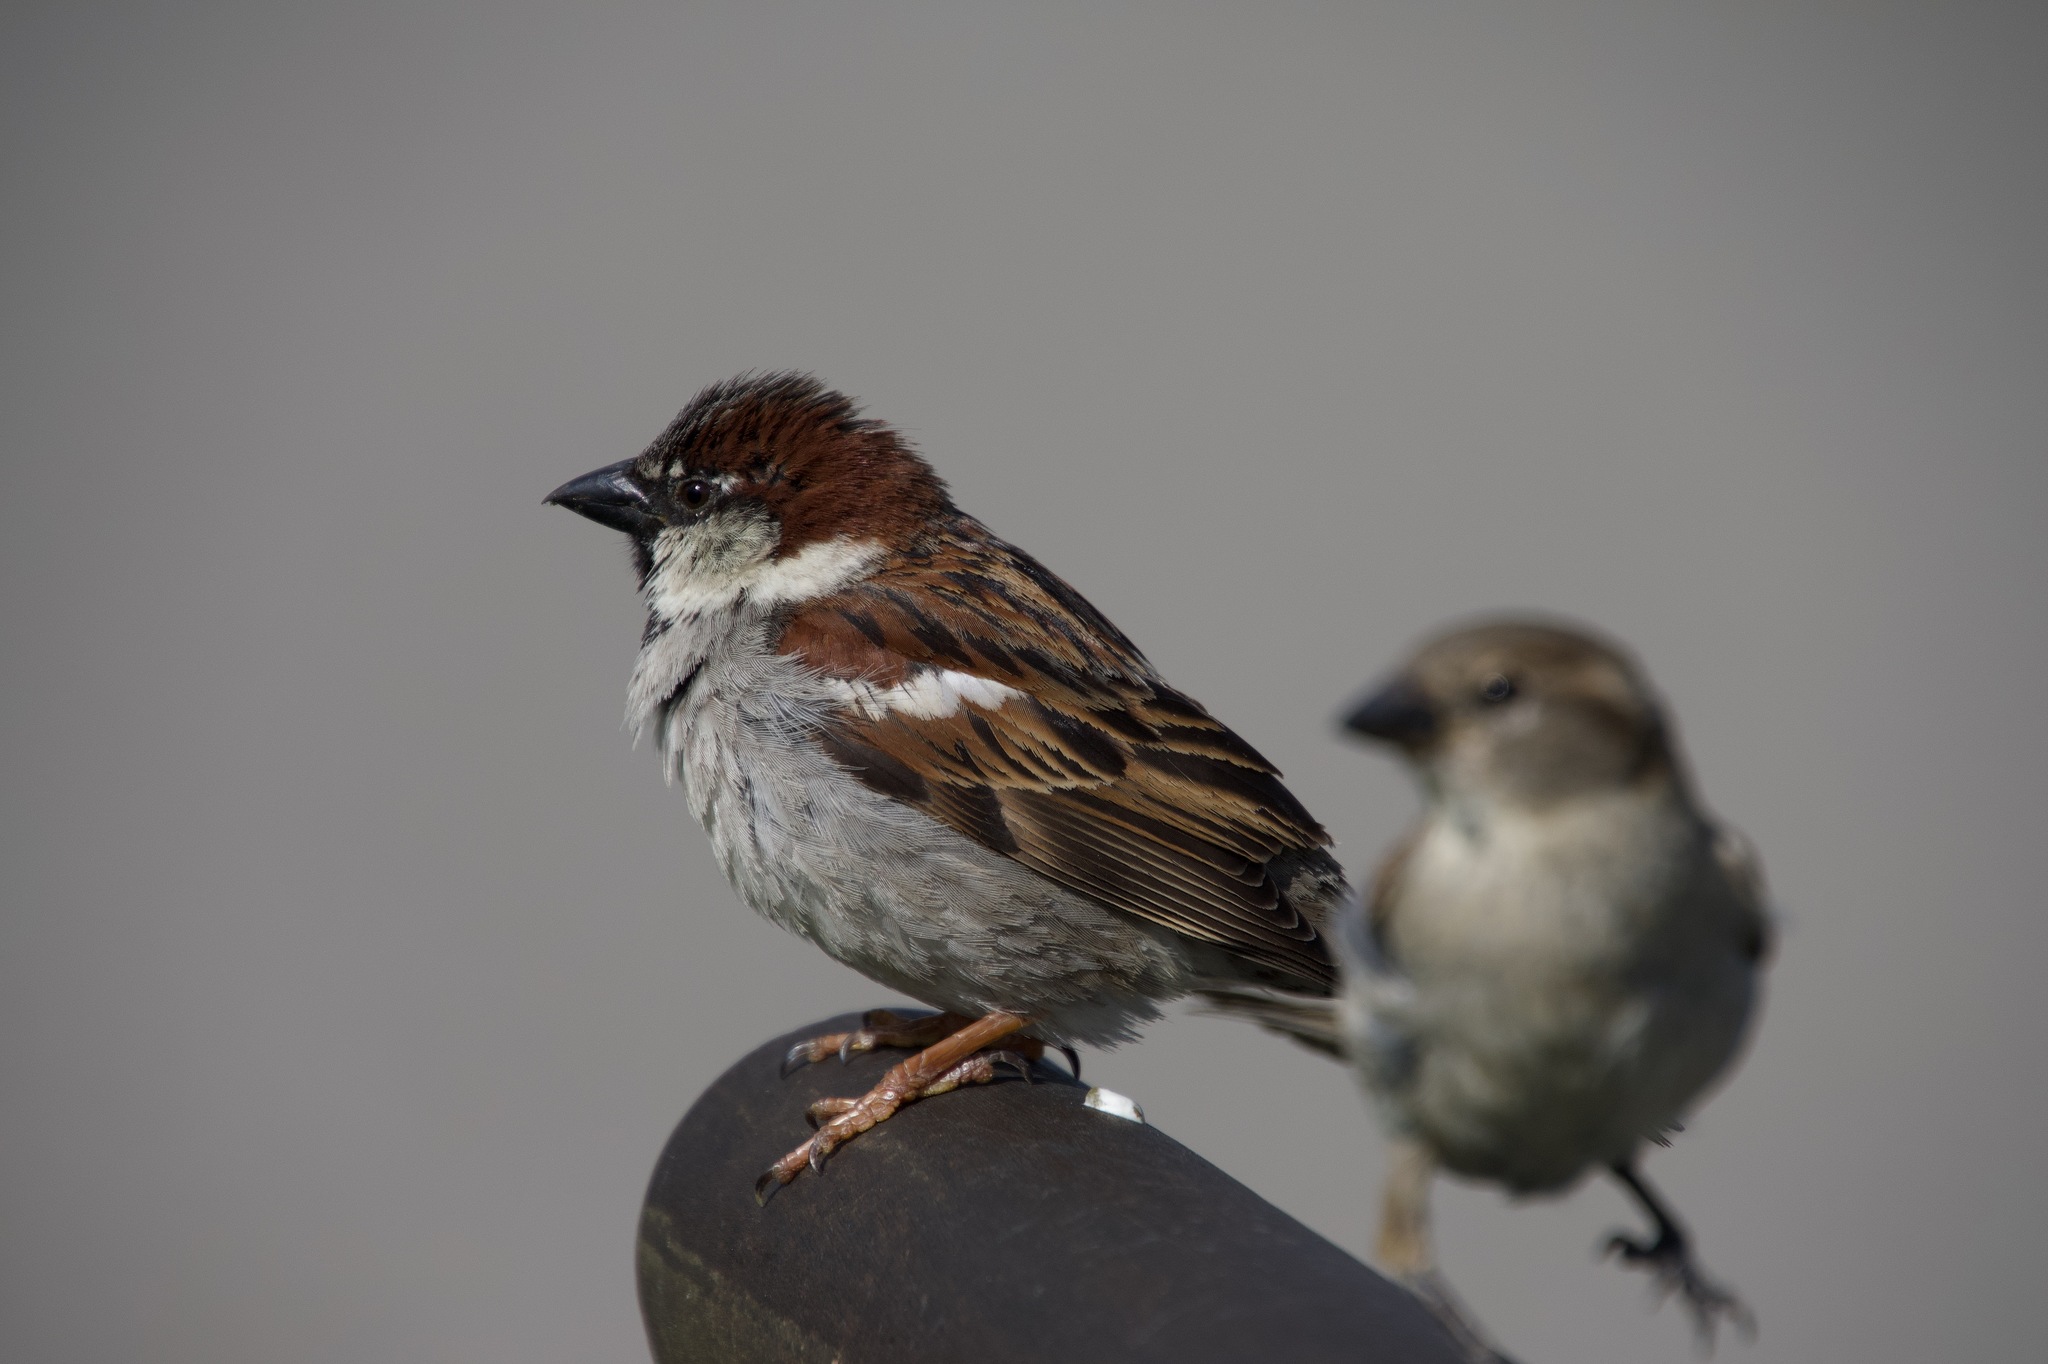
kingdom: Animalia
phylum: Chordata
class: Aves
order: Passeriformes
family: Passeridae
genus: Passer
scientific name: Passer domesticus
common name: House sparrow
